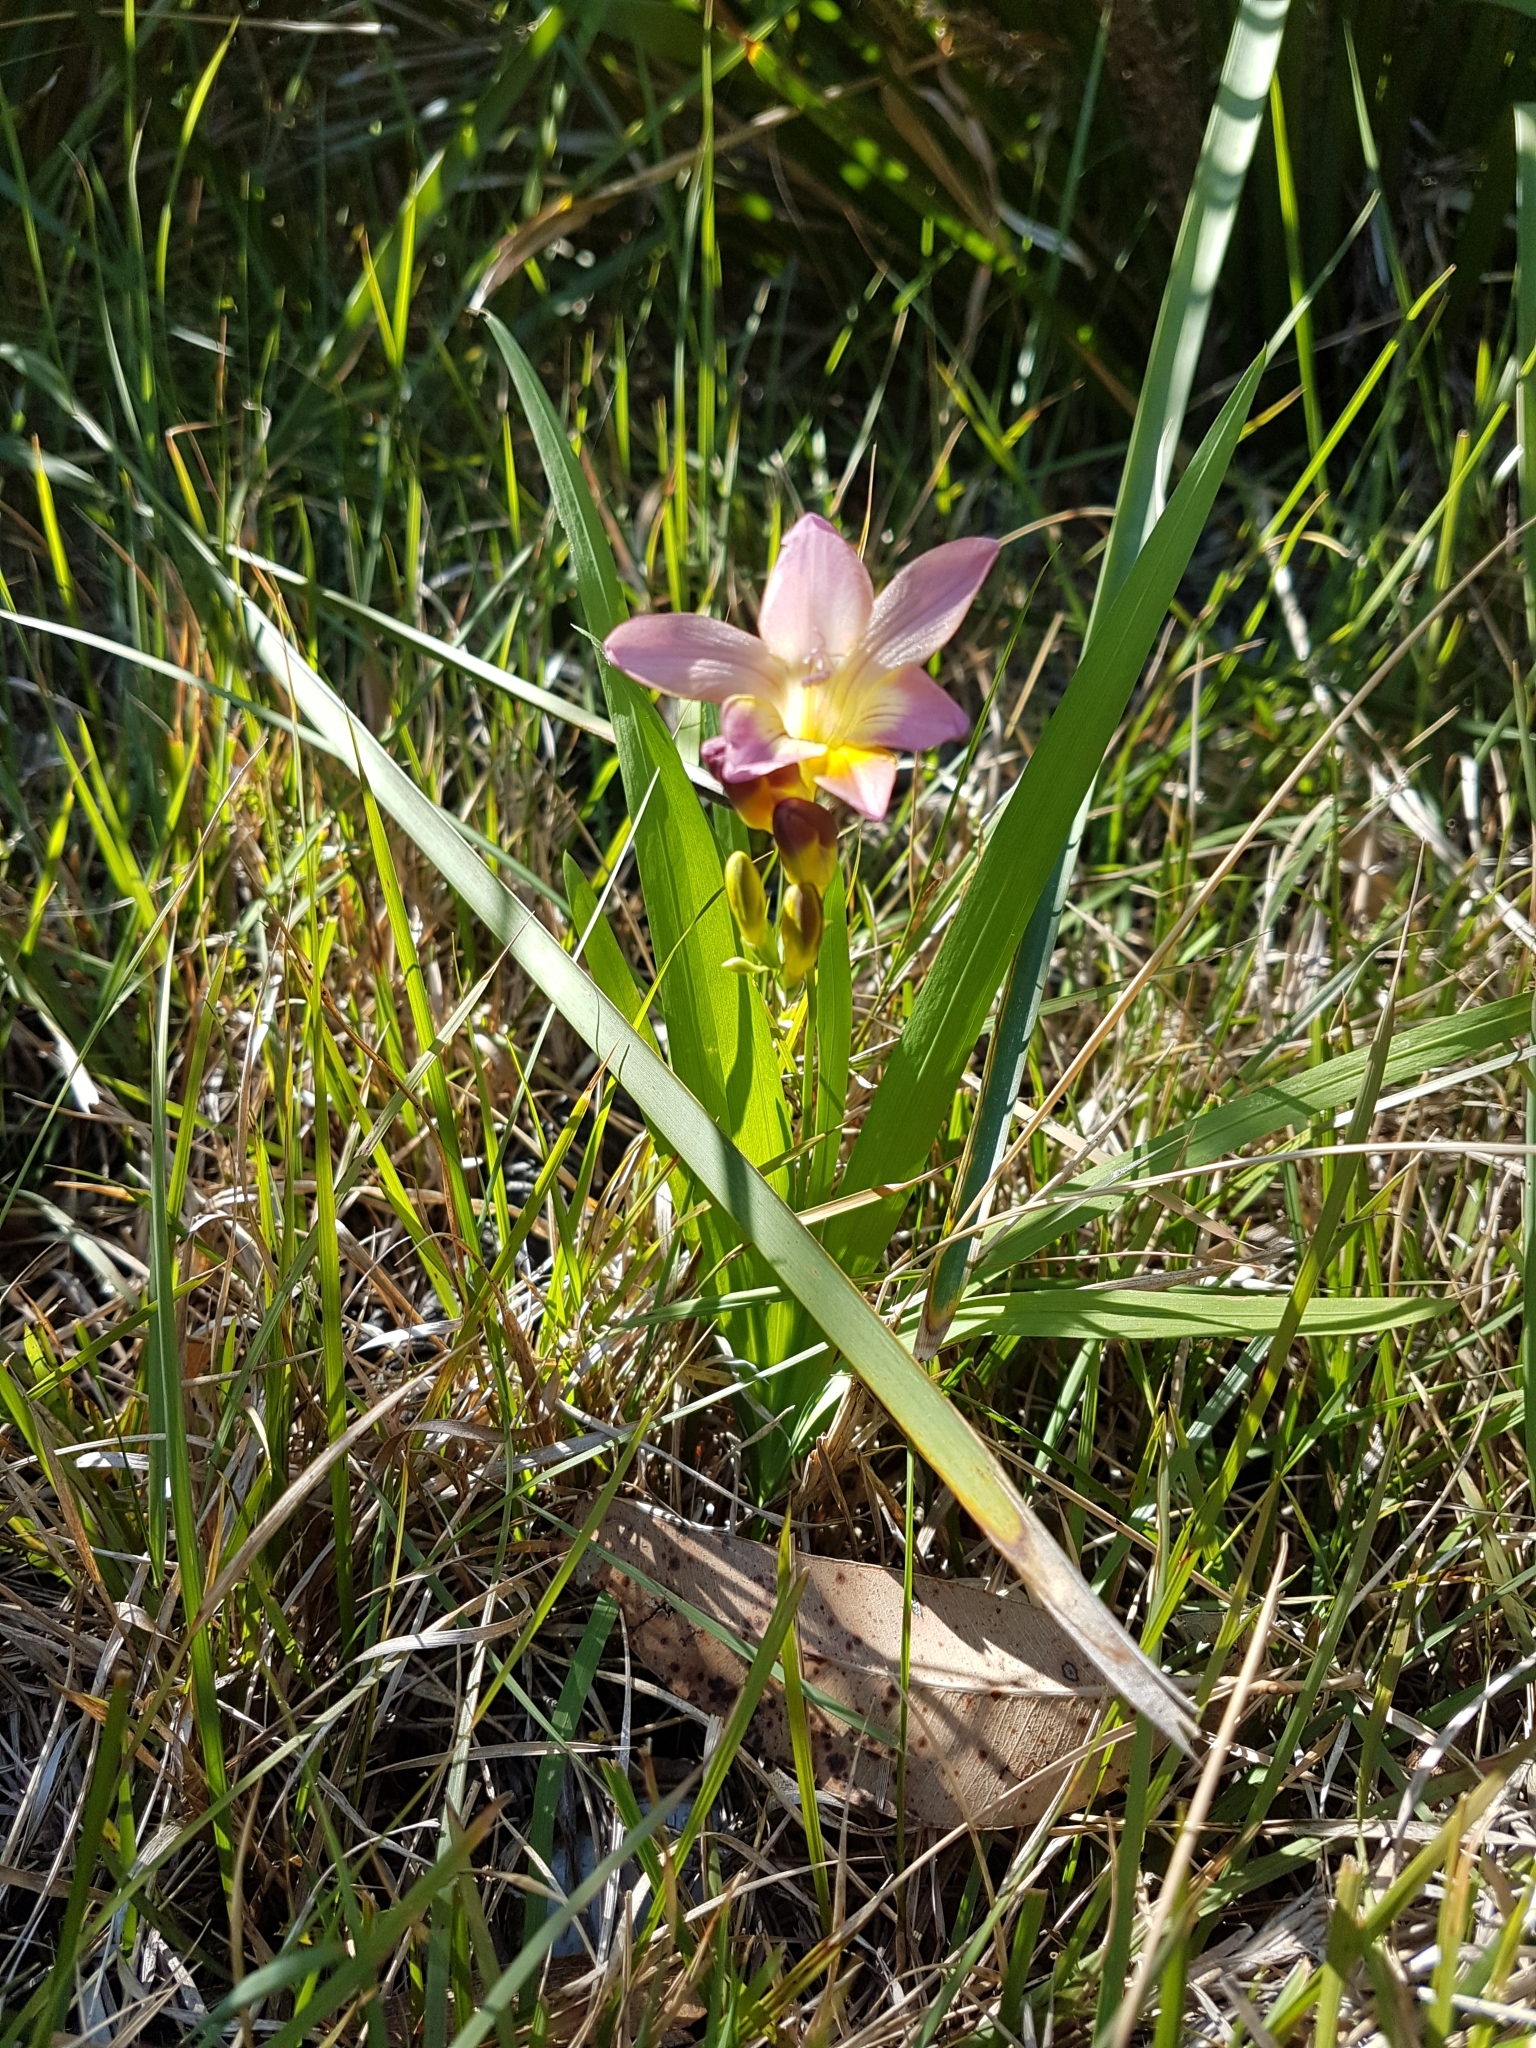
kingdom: Plantae
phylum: Tracheophyta
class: Liliopsida
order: Asparagales
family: Iridaceae
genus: Freesia
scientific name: Freesia leichtlinii
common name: Freesia
